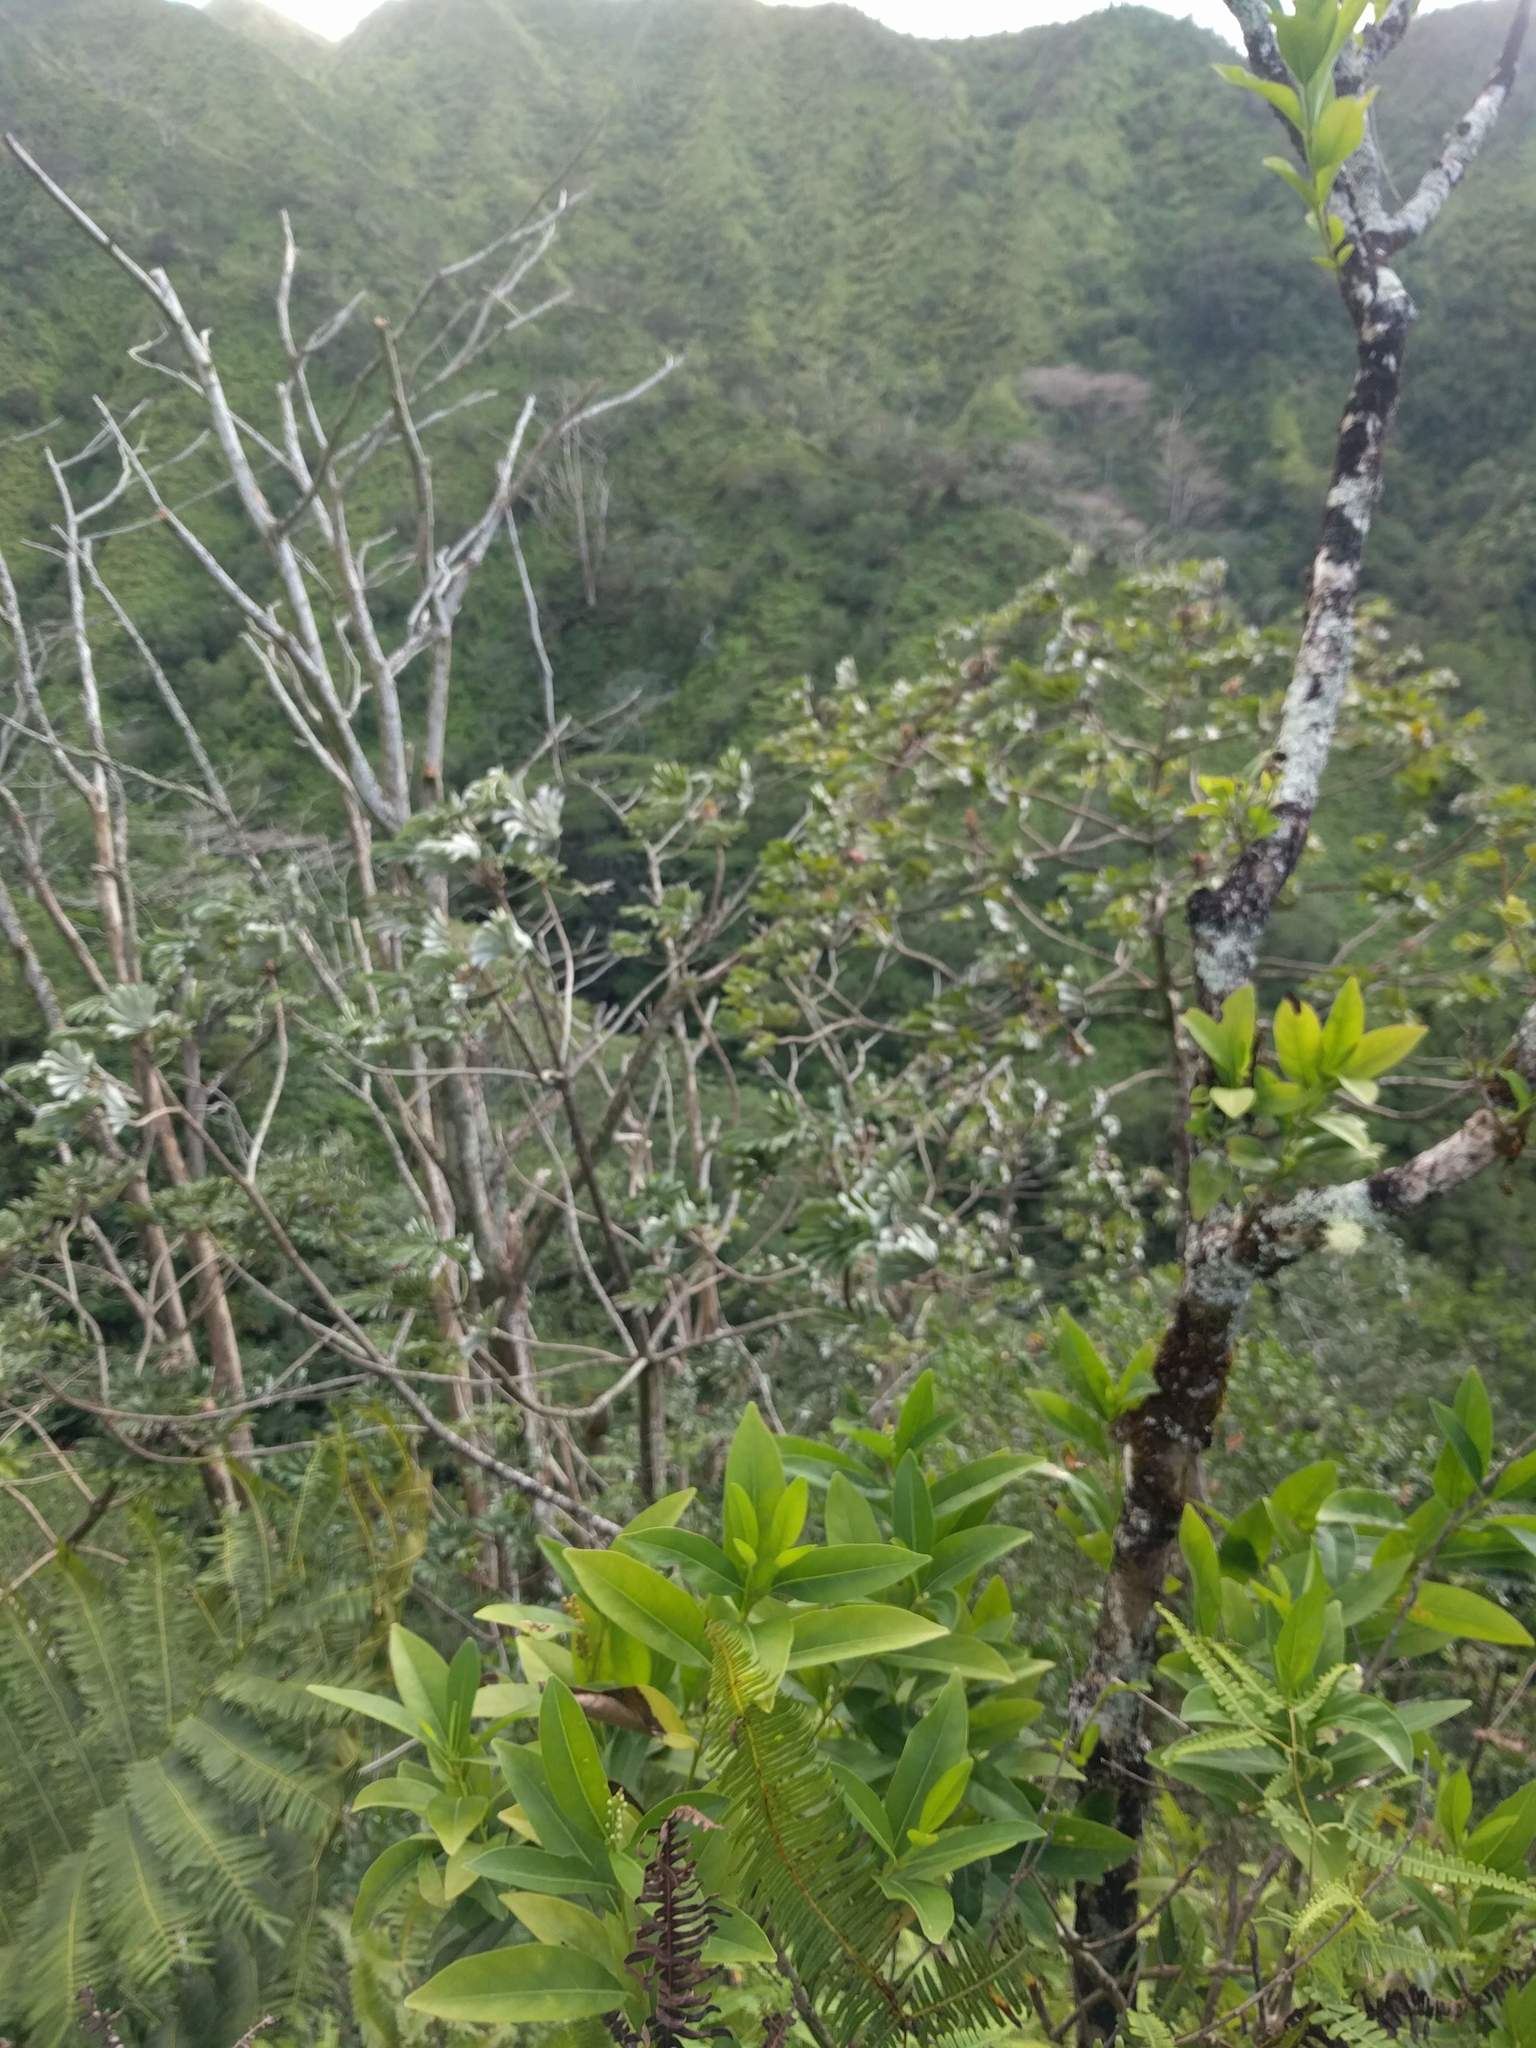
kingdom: Plantae
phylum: Tracheophyta
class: Magnoliopsida
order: Rosales
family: Urticaceae
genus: Cecropia
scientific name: Cecropia obtusifolia
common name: Trumpet tree
